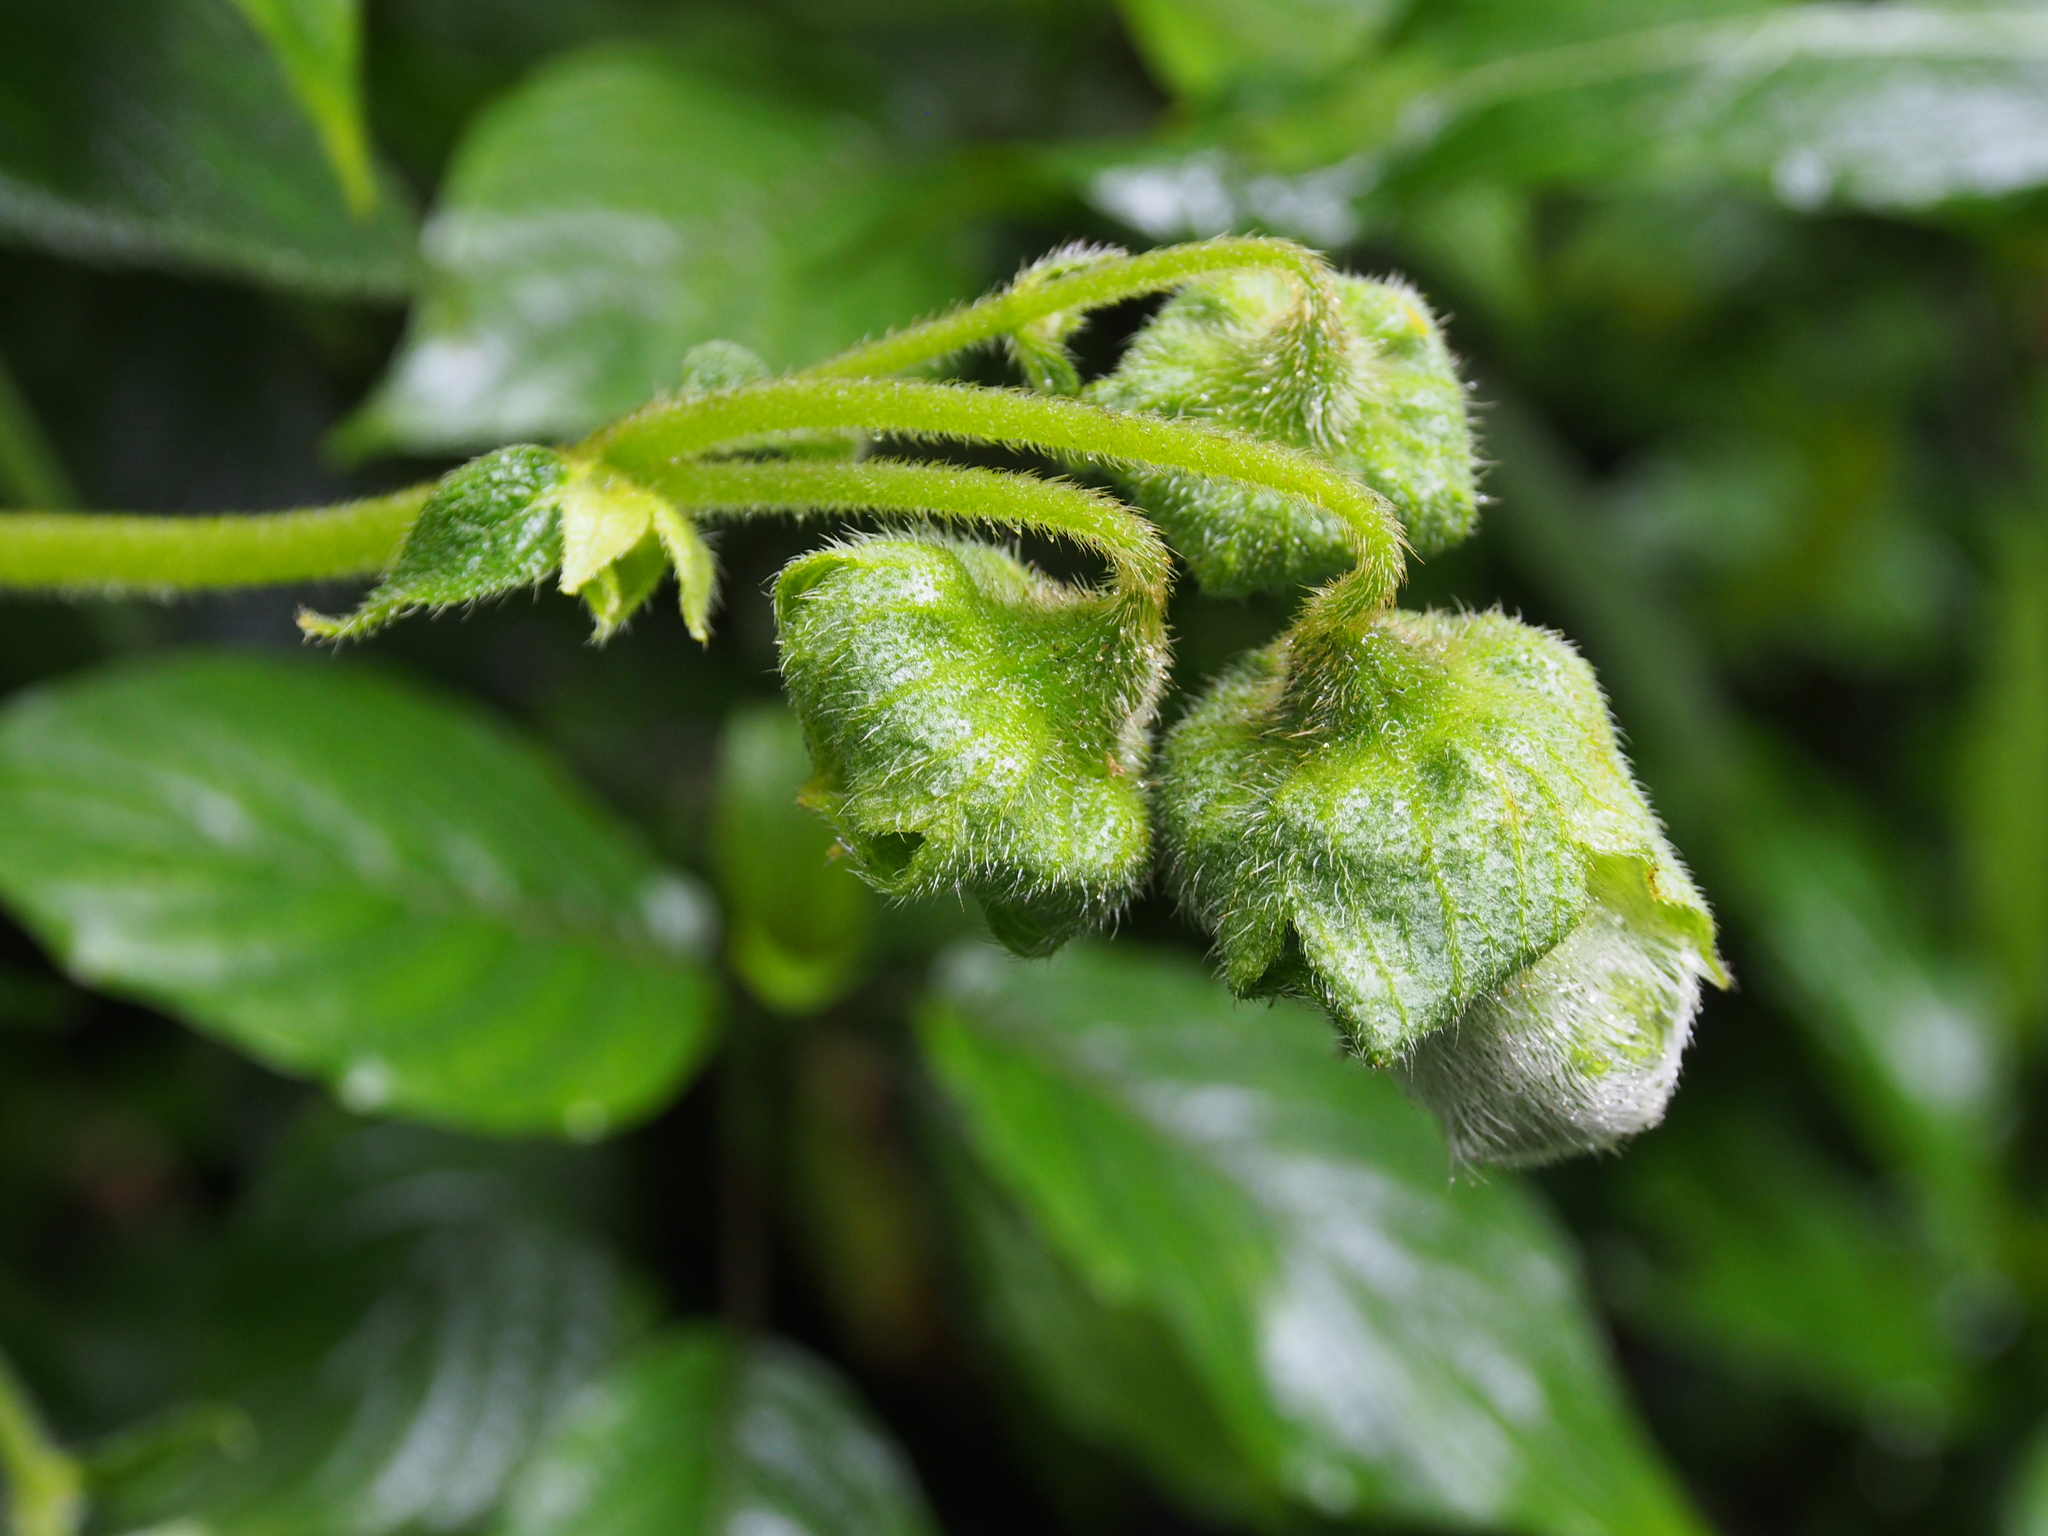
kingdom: Plantae
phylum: Tracheophyta
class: Magnoliopsida
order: Lamiales
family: Gesneriaceae
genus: Kohleria
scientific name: Kohleria tigridia
